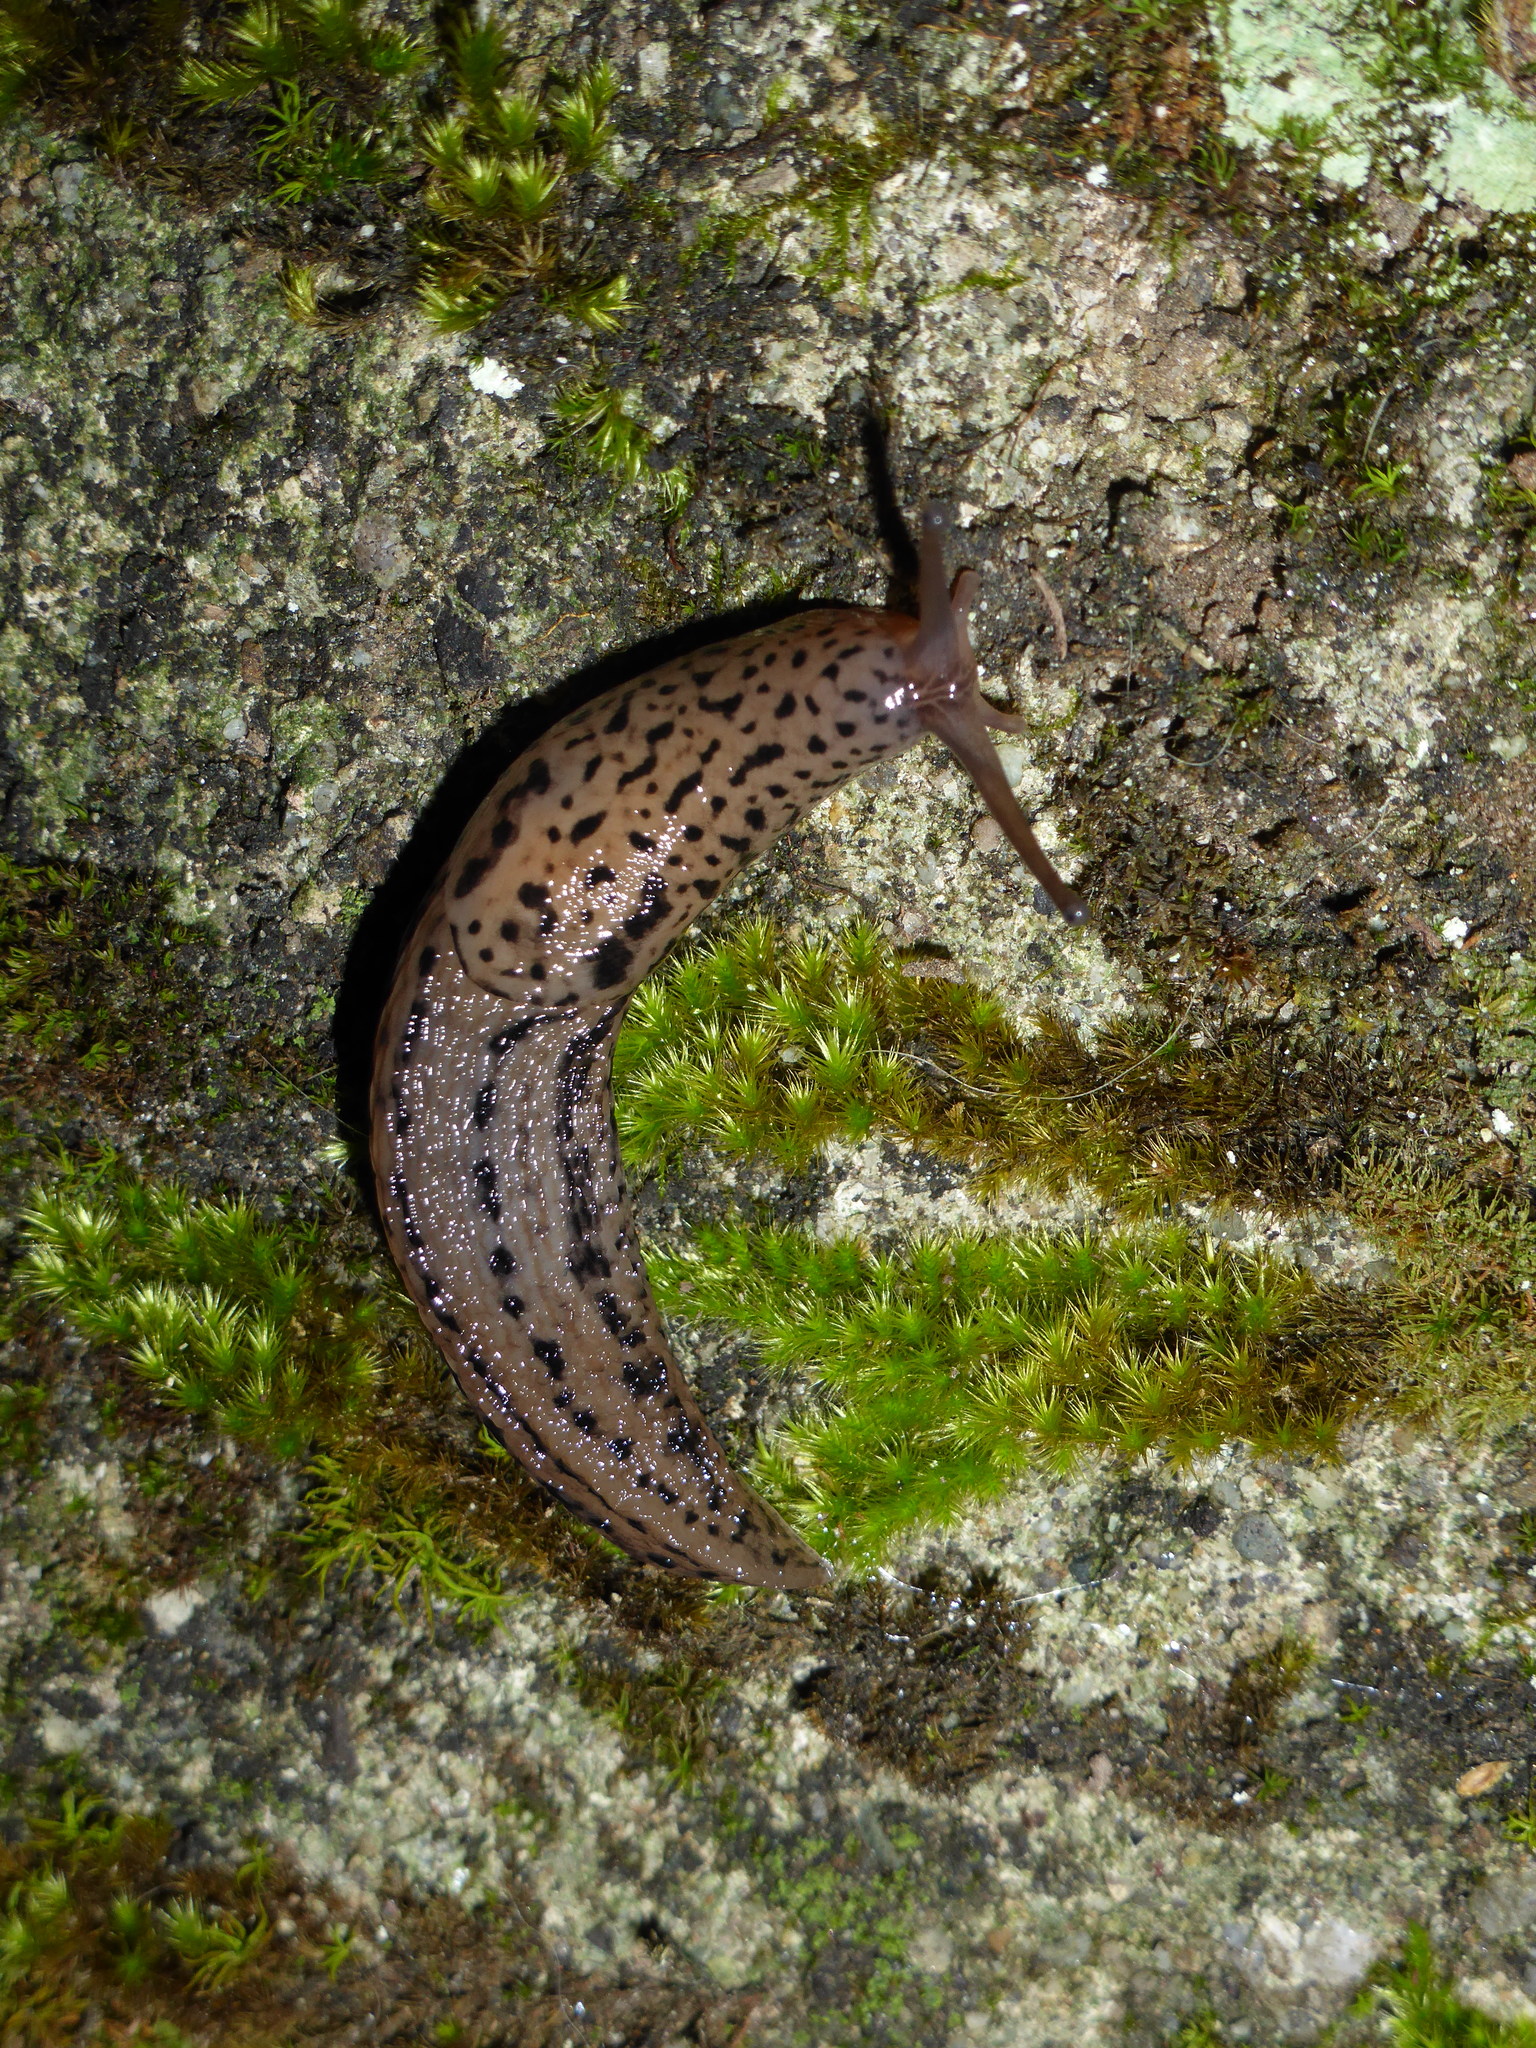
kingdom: Animalia
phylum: Mollusca
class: Gastropoda
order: Stylommatophora
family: Limacidae
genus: Limax
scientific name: Limax maximus
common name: Great grey slug
